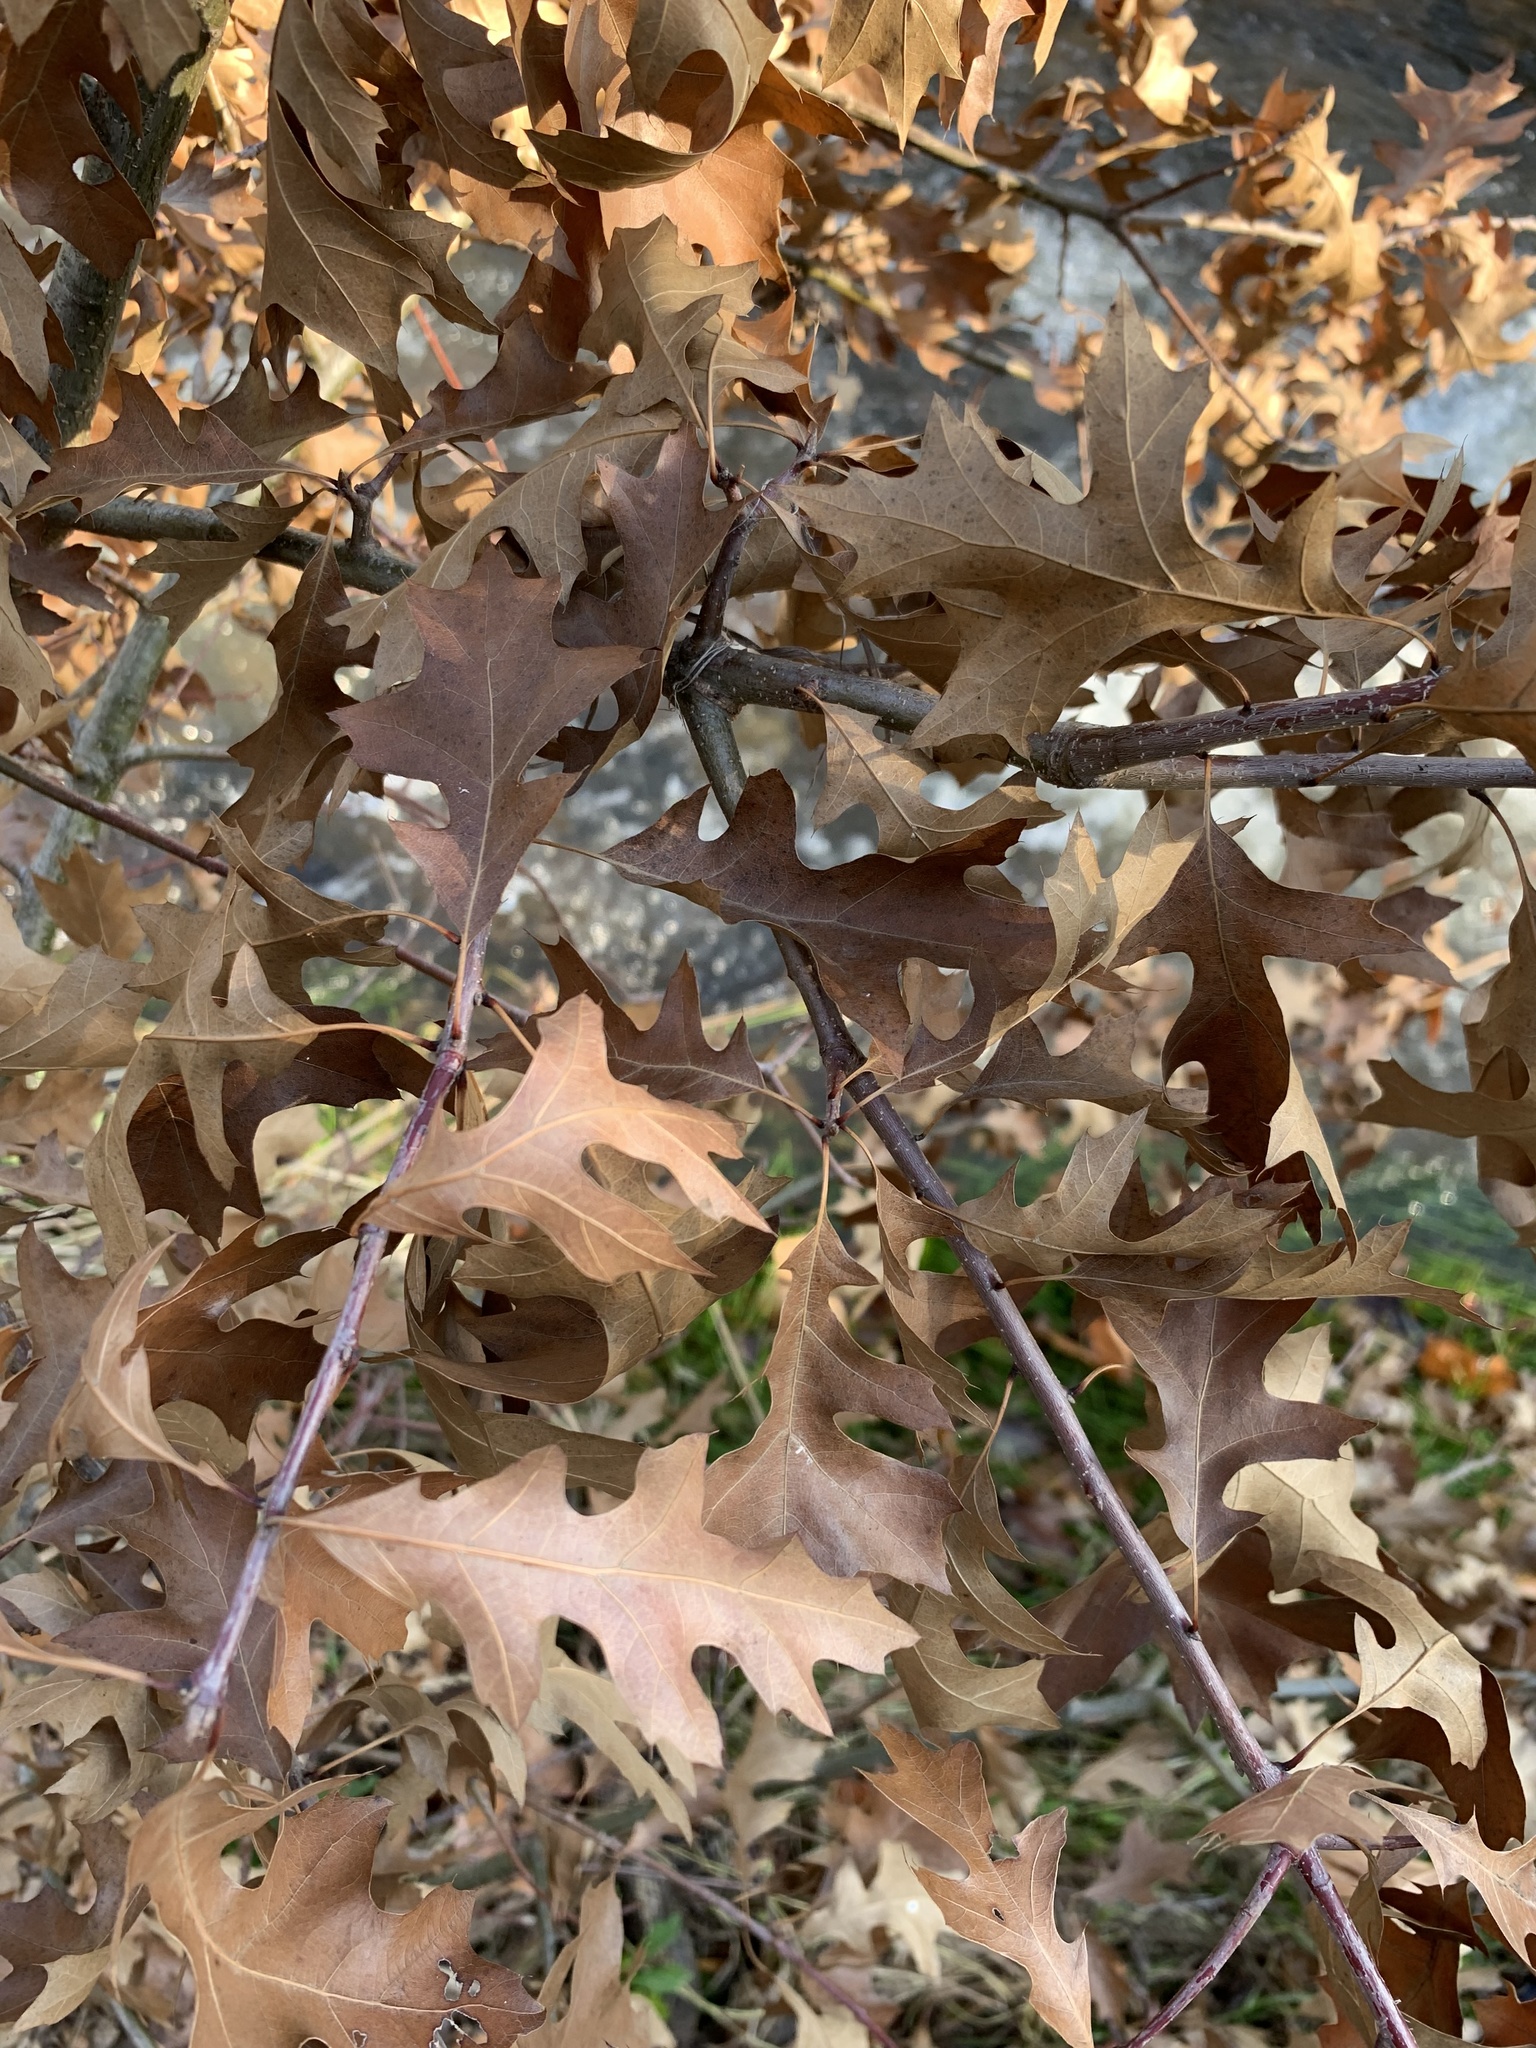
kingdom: Plantae
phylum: Tracheophyta
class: Magnoliopsida
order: Fagales
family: Fagaceae
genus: Quercus
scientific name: Quercus palustris
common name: Pin oak
